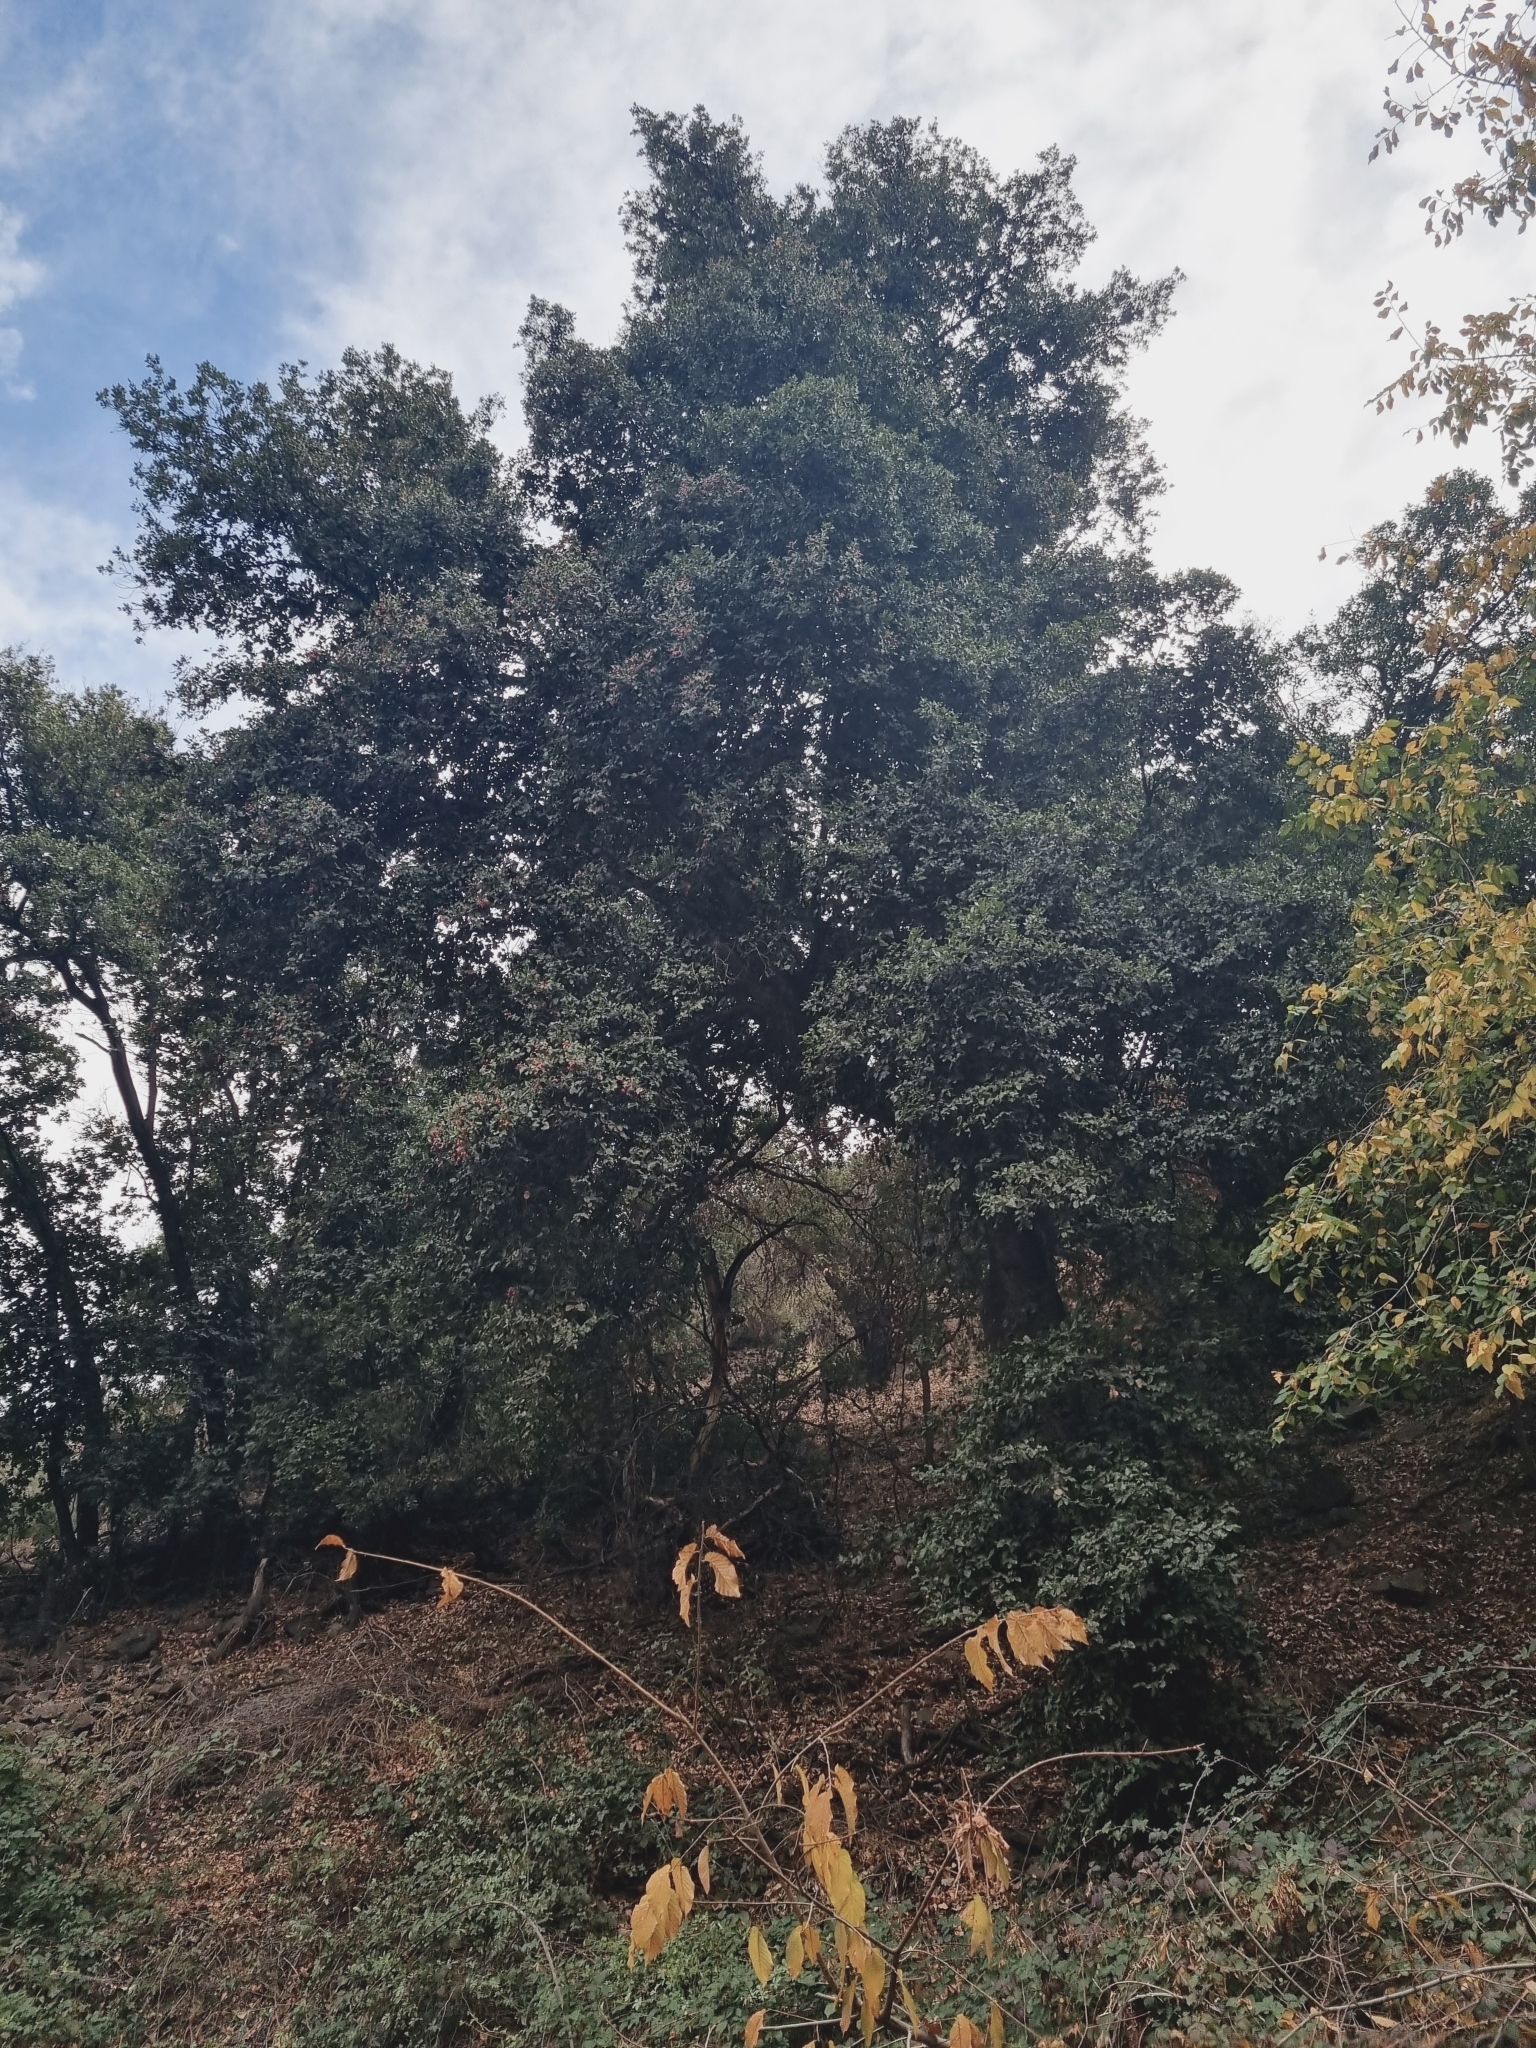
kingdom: Plantae
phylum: Tracheophyta
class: Magnoliopsida
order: Laurales
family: Lauraceae
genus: Cryptocarya
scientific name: Cryptocarya alba
